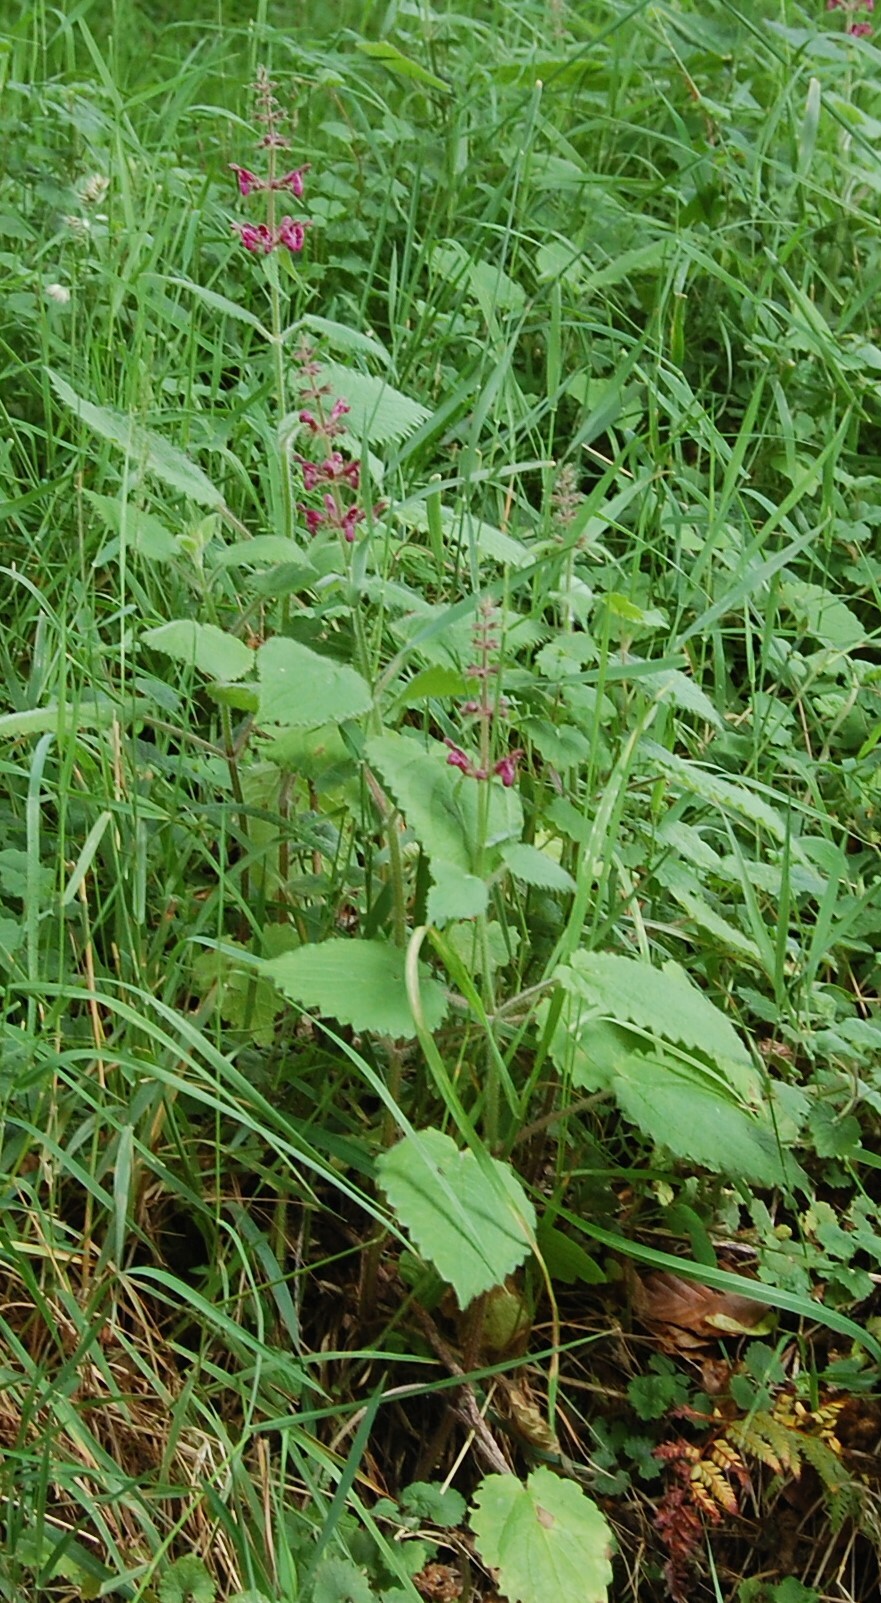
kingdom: Plantae
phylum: Tracheophyta
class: Magnoliopsida
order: Lamiales
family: Lamiaceae
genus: Stachys
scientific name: Stachys sylvatica
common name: Hedge woundwort
